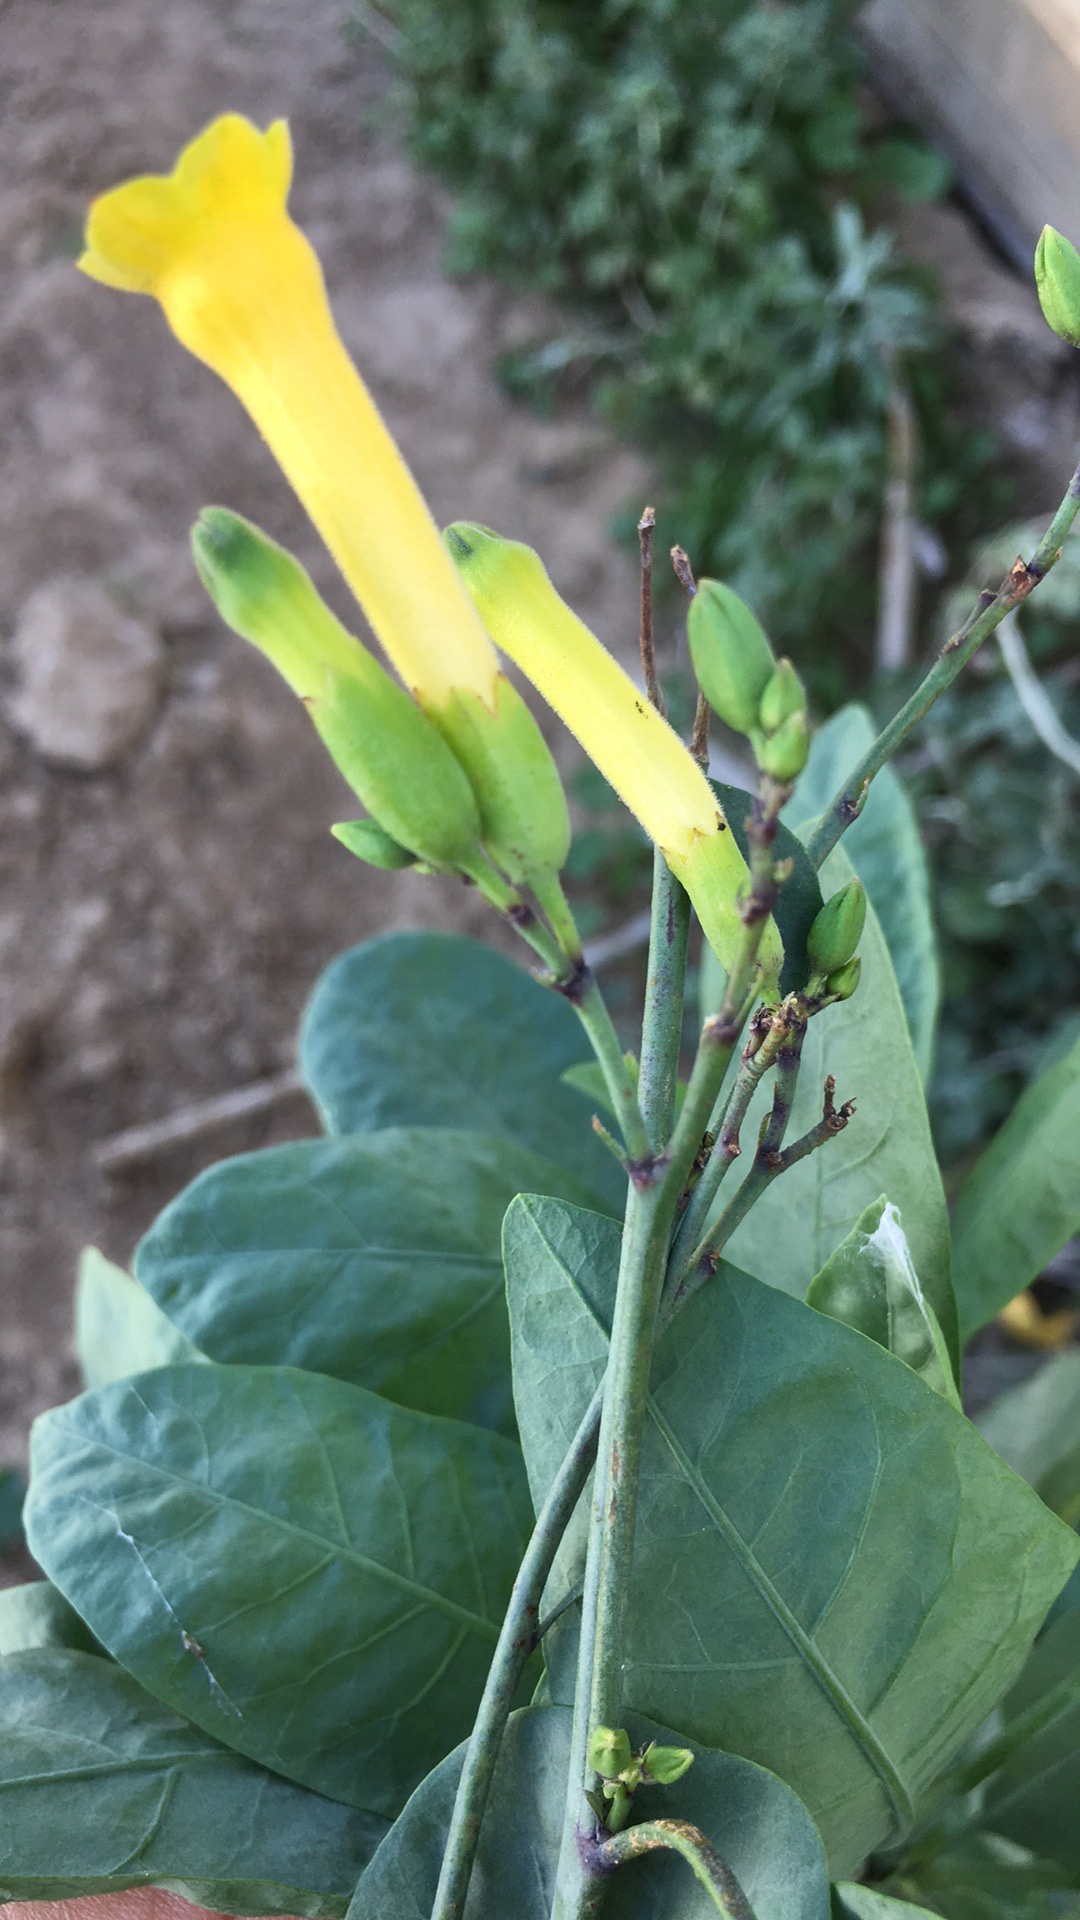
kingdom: Plantae
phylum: Tracheophyta
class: Magnoliopsida
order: Solanales
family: Solanaceae
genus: Nicotiana
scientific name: Nicotiana glauca
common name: Tree tobacco
